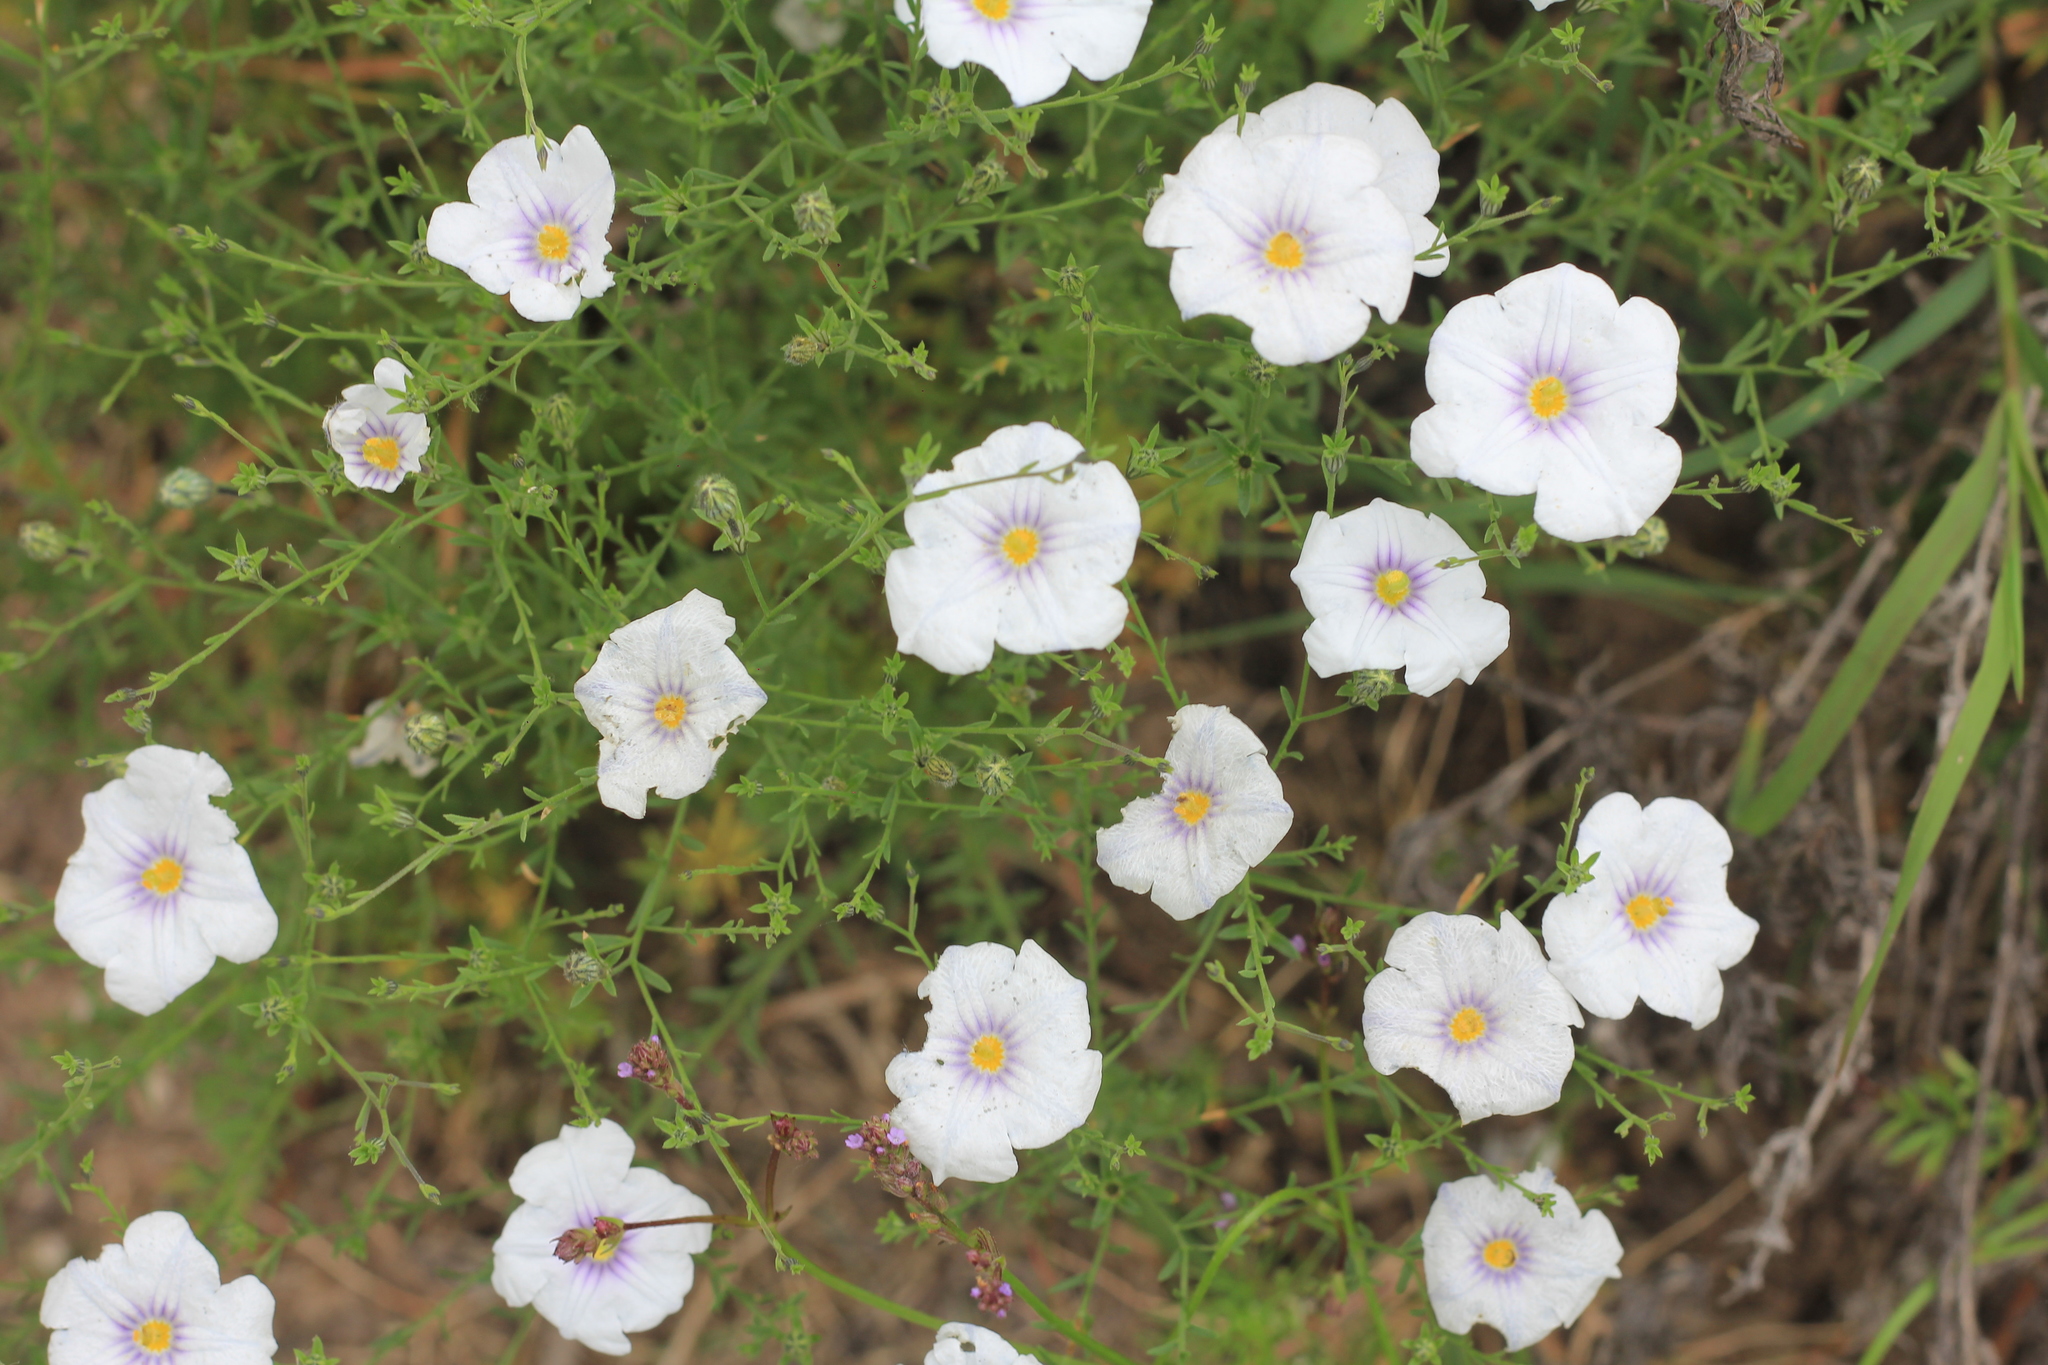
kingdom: Plantae
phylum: Tracheophyta
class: Magnoliopsida
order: Solanales
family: Solanaceae
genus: Nierembergia
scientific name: Nierembergia linariifolia
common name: Dwarf cupflower
